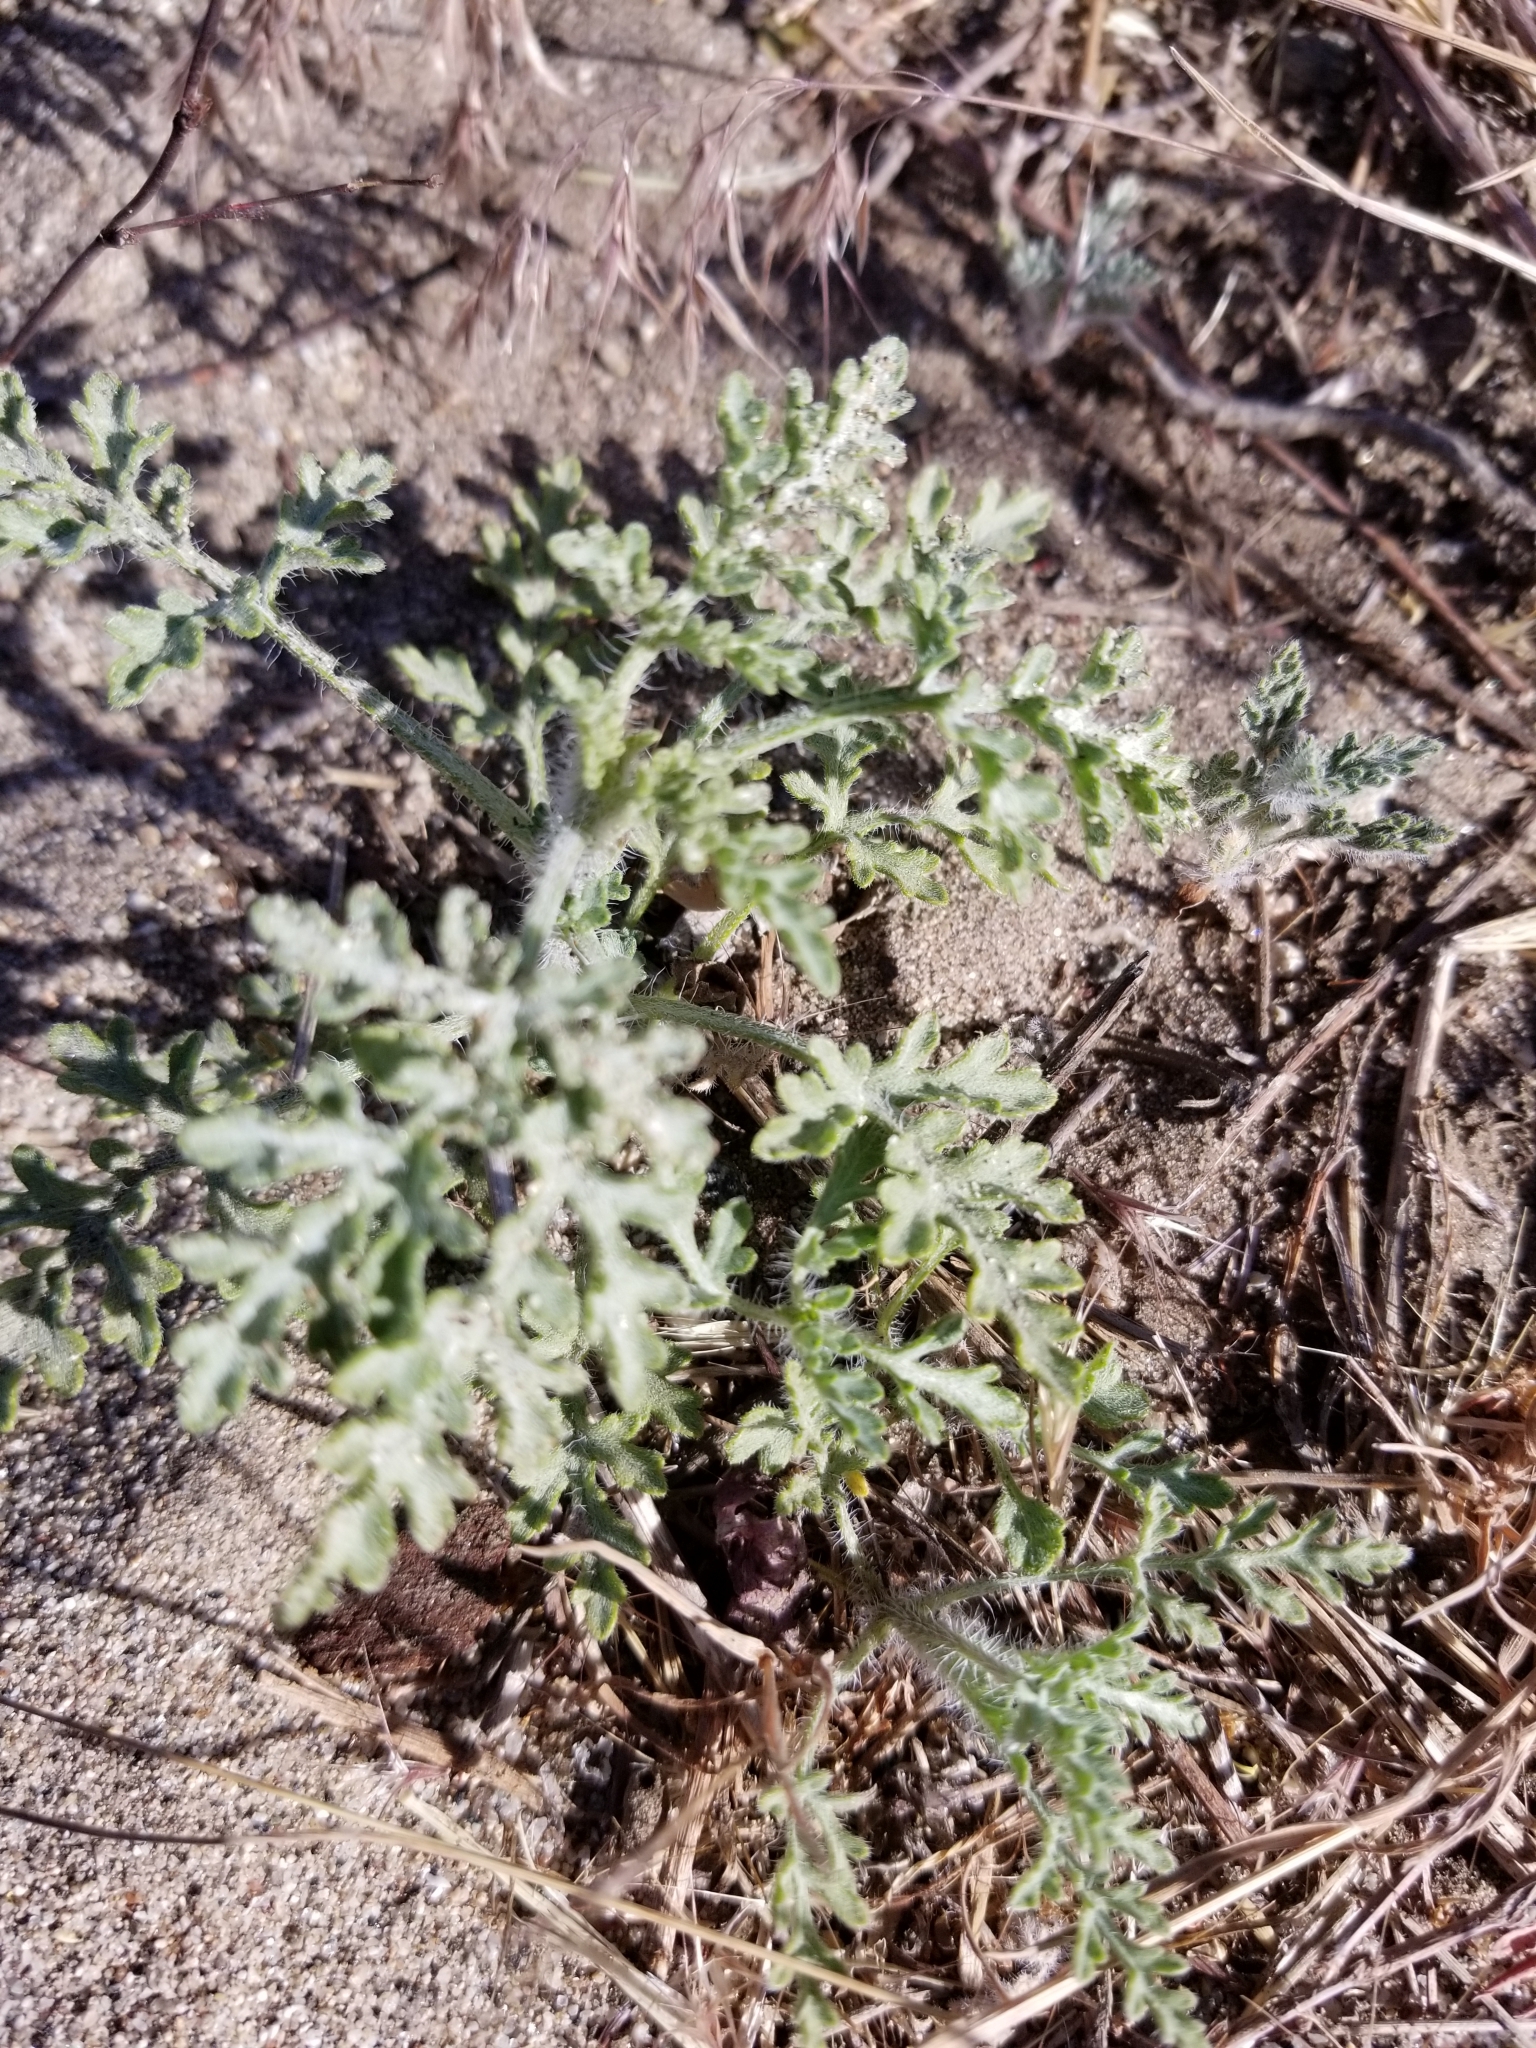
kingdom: Plantae
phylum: Tracheophyta
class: Magnoliopsida
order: Asterales
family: Asteraceae
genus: Ambrosia
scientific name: Ambrosia acanthicarpa
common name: Hooker's bur ragweed
